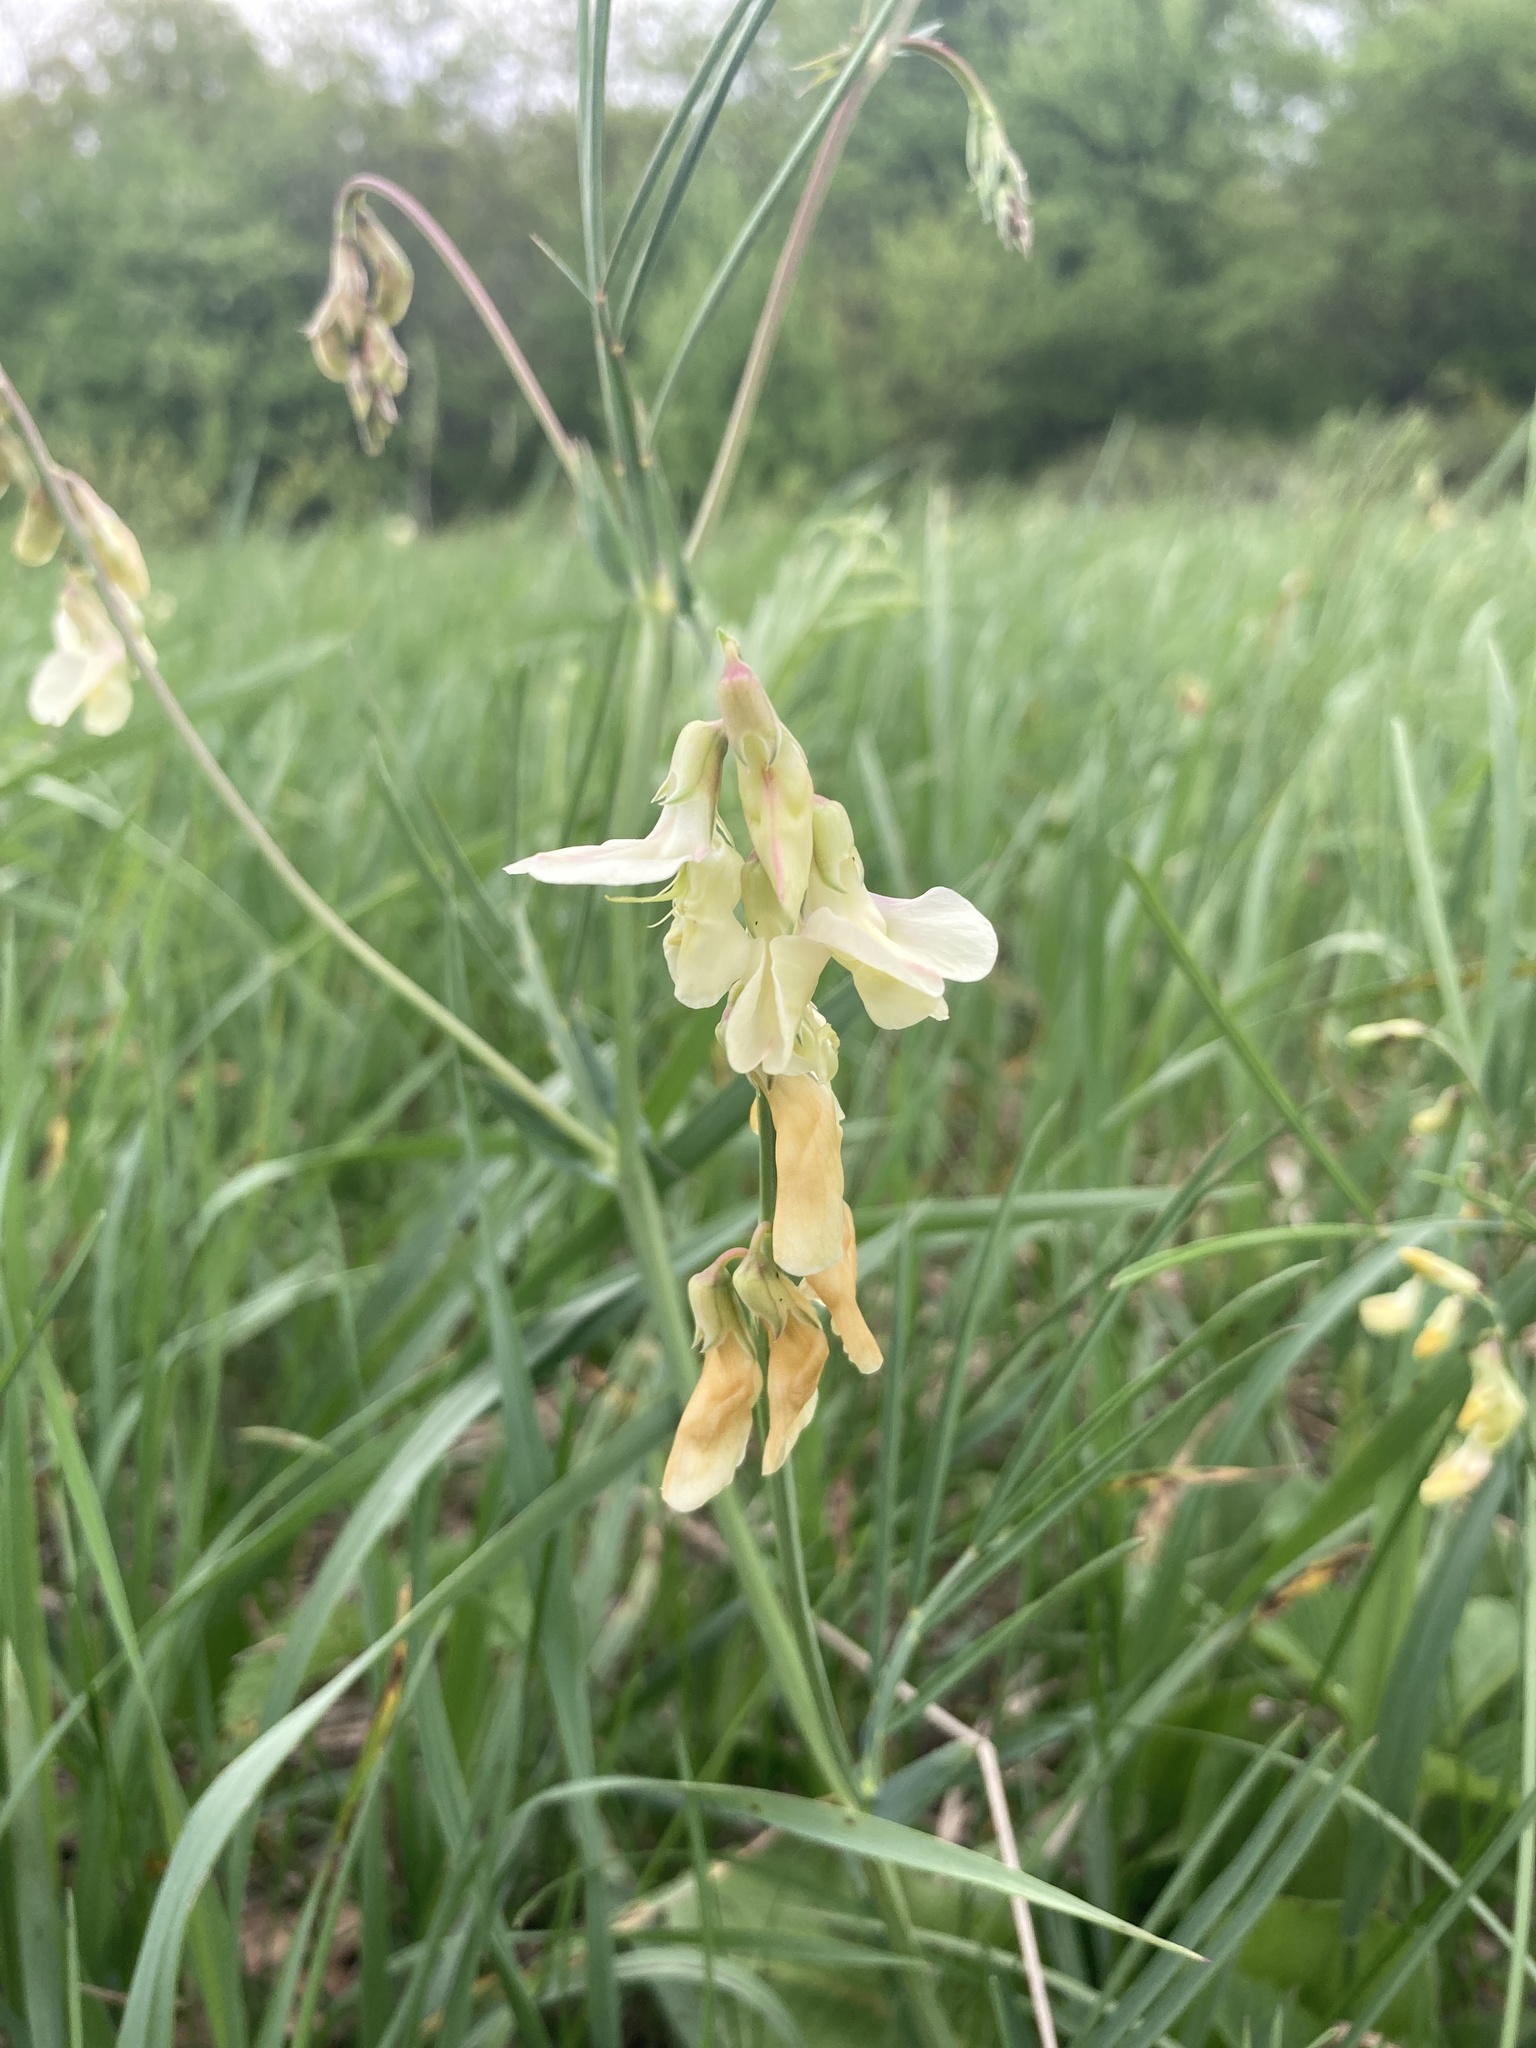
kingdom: Plantae
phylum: Tracheophyta
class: Magnoliopsida
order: Fabales
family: Fabaceae
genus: Lathyrus
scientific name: Lathyrus pannonicus
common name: Pea
